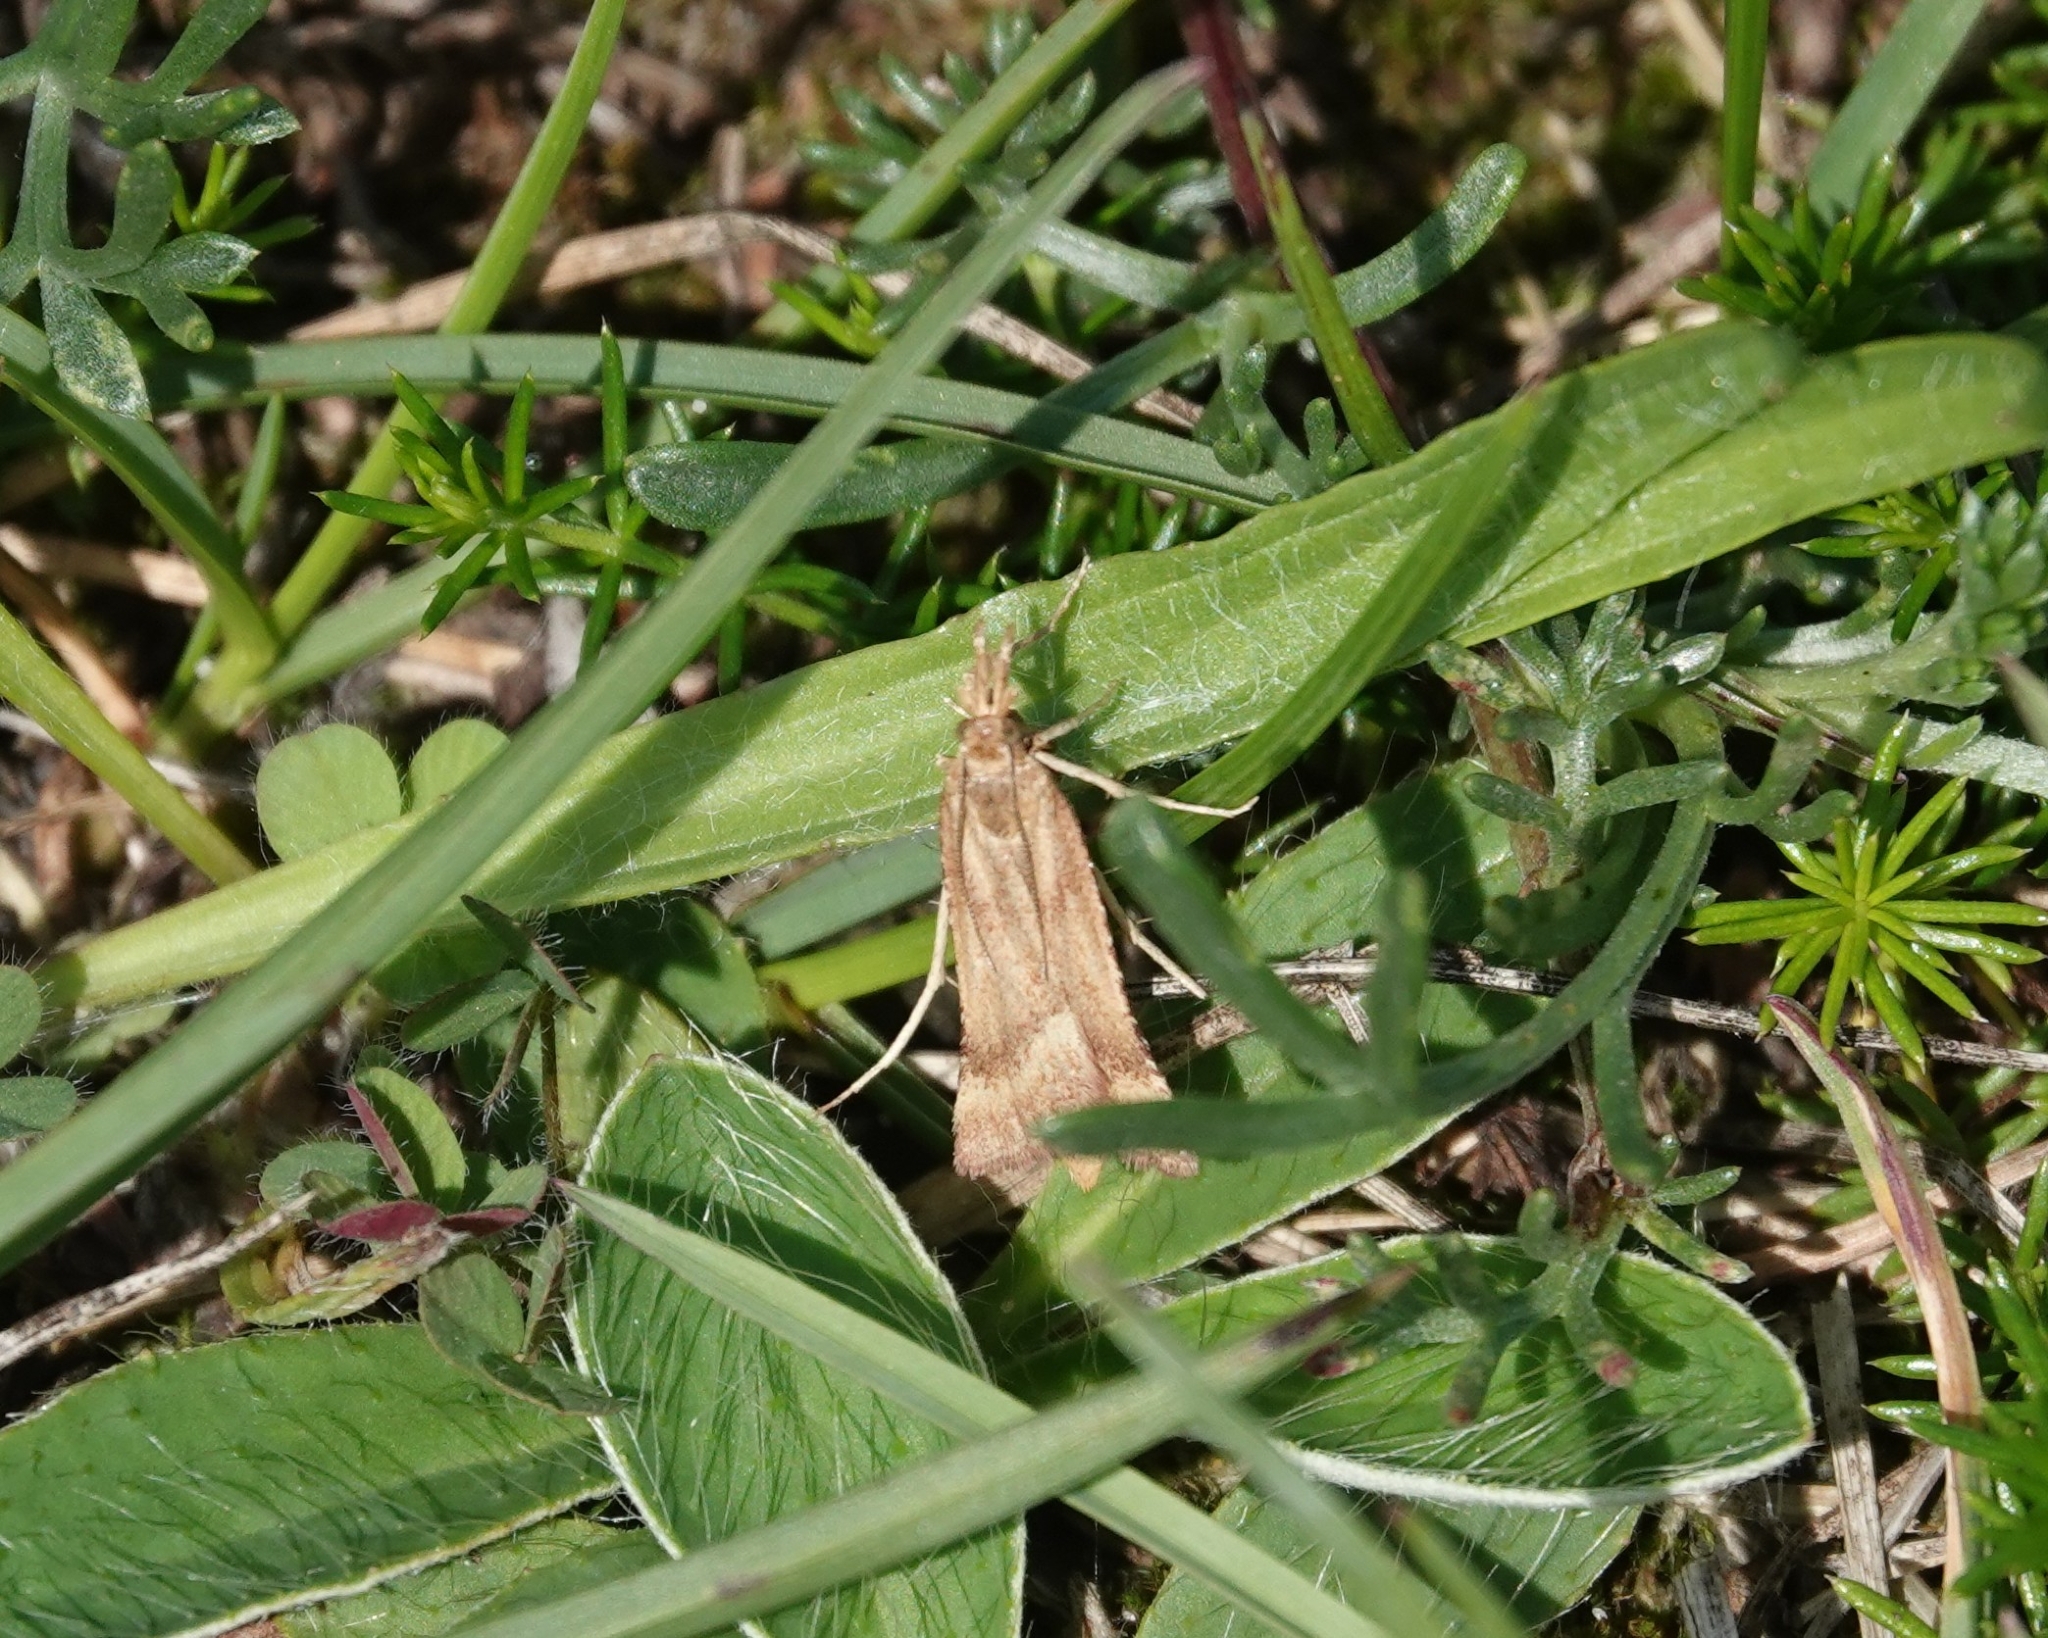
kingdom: Animalia
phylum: Arthropoda
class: Insecta
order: Lepidoptera
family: Pyralidae
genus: Synaphe
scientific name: Synaphe punctalis
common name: Long-legged tabby
